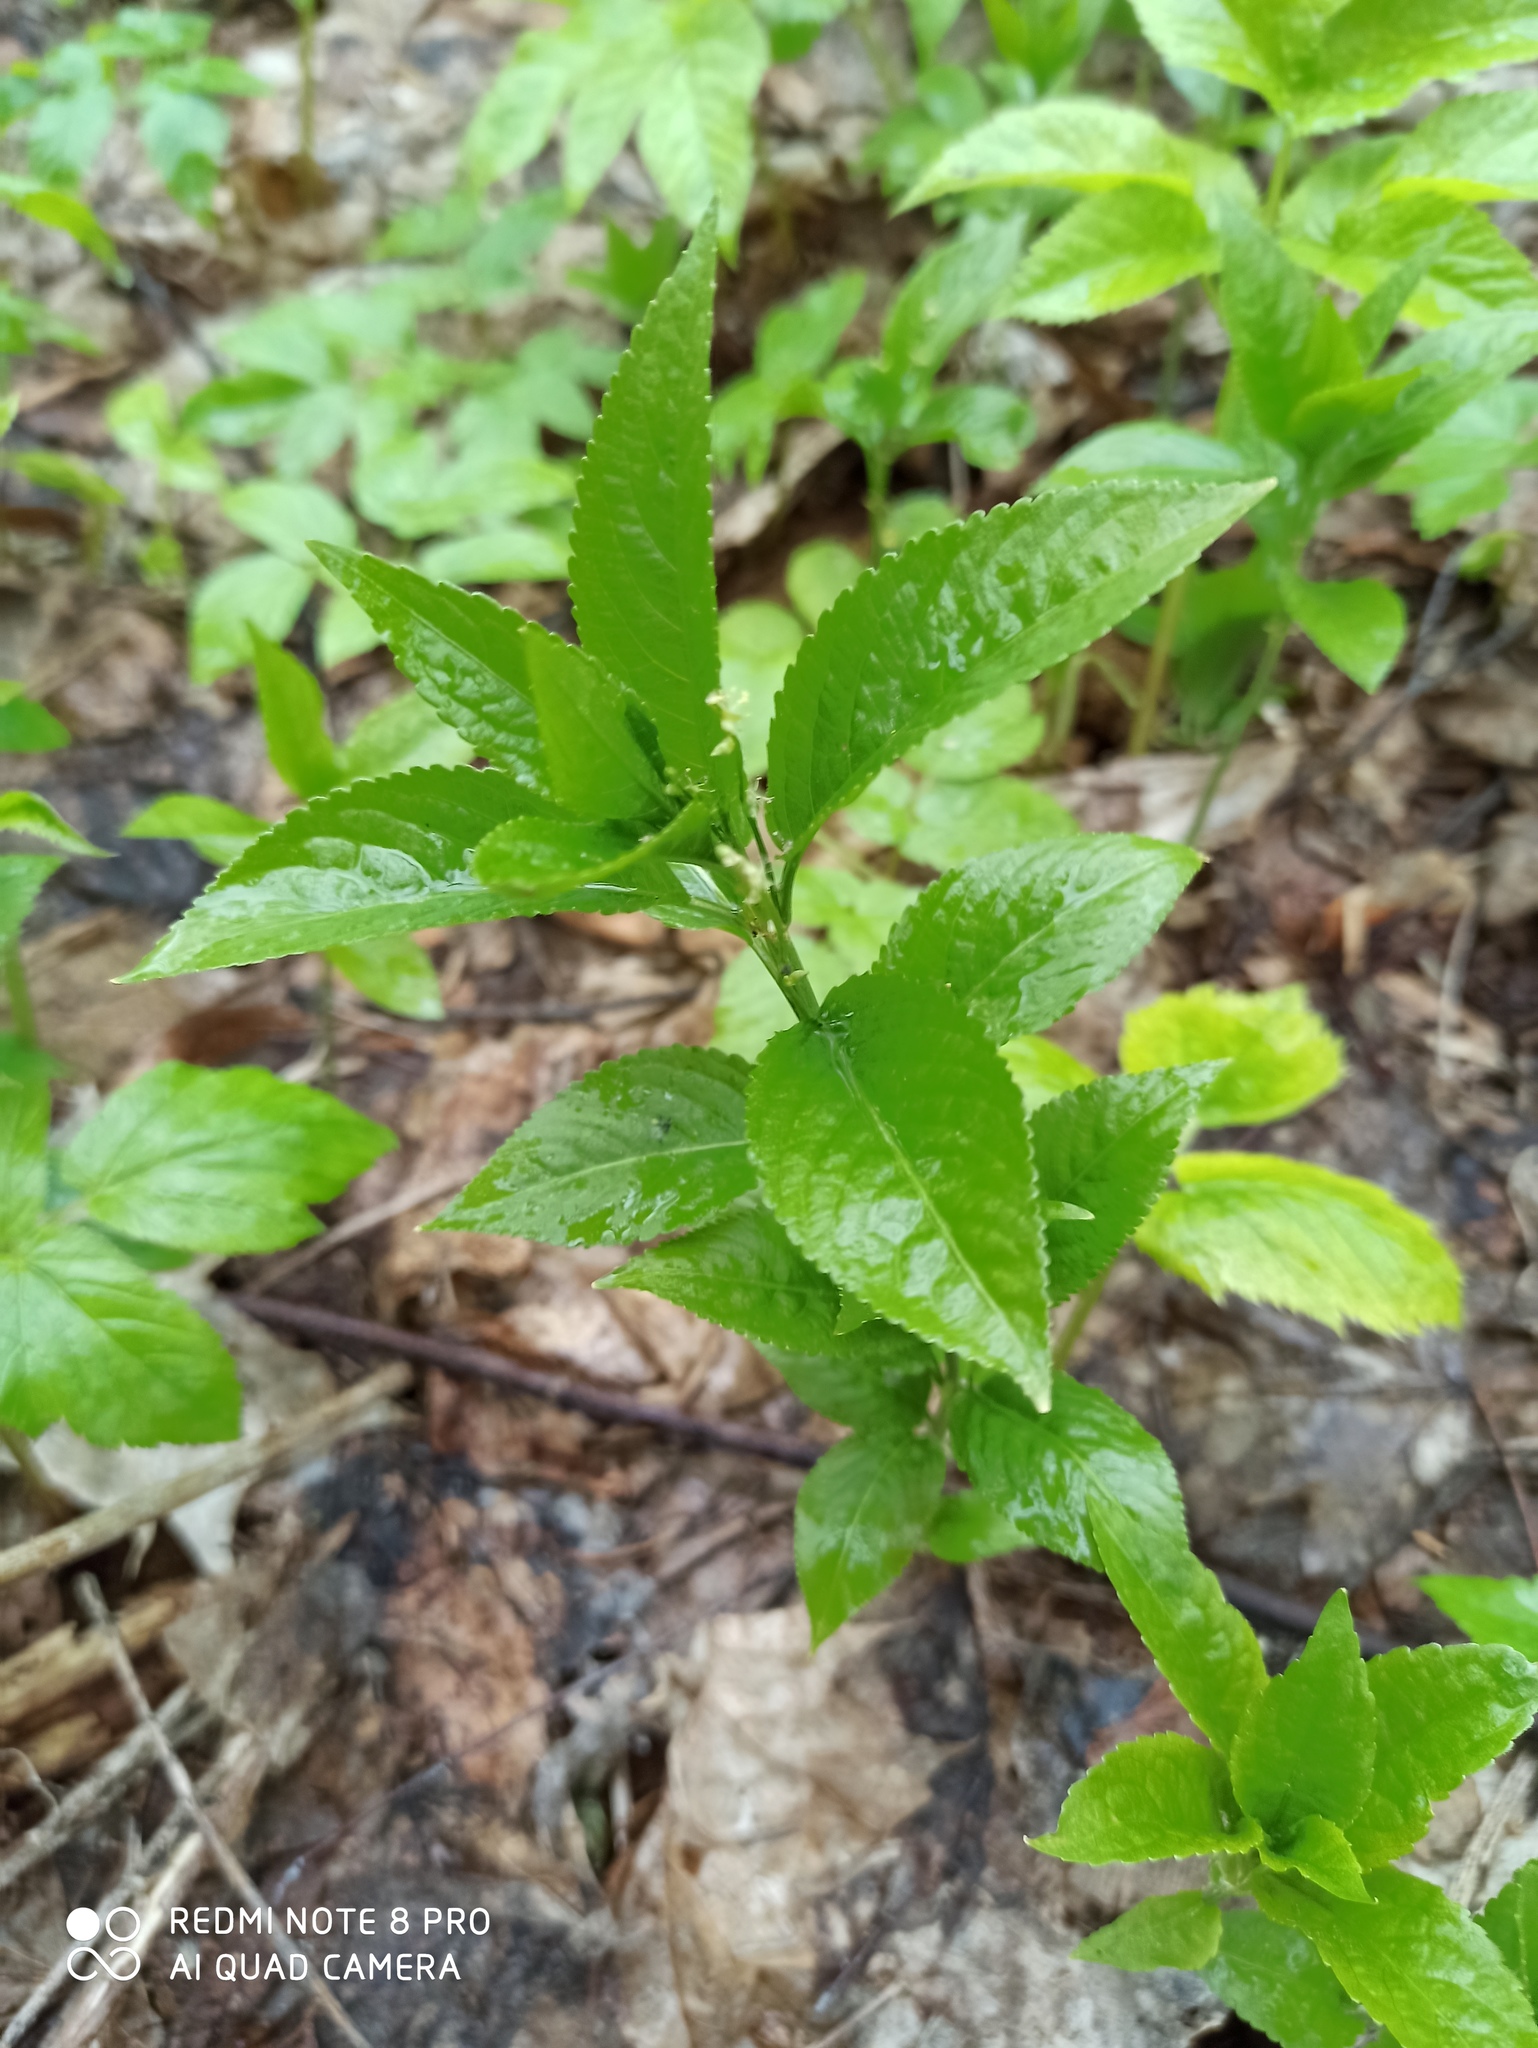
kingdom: Plantae
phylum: Tracheophyta
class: Magnoliopsida
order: Malpighiales
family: Euphorbiaceae
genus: Mercurialis
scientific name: Mercurialis perennis
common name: Dog mercury
